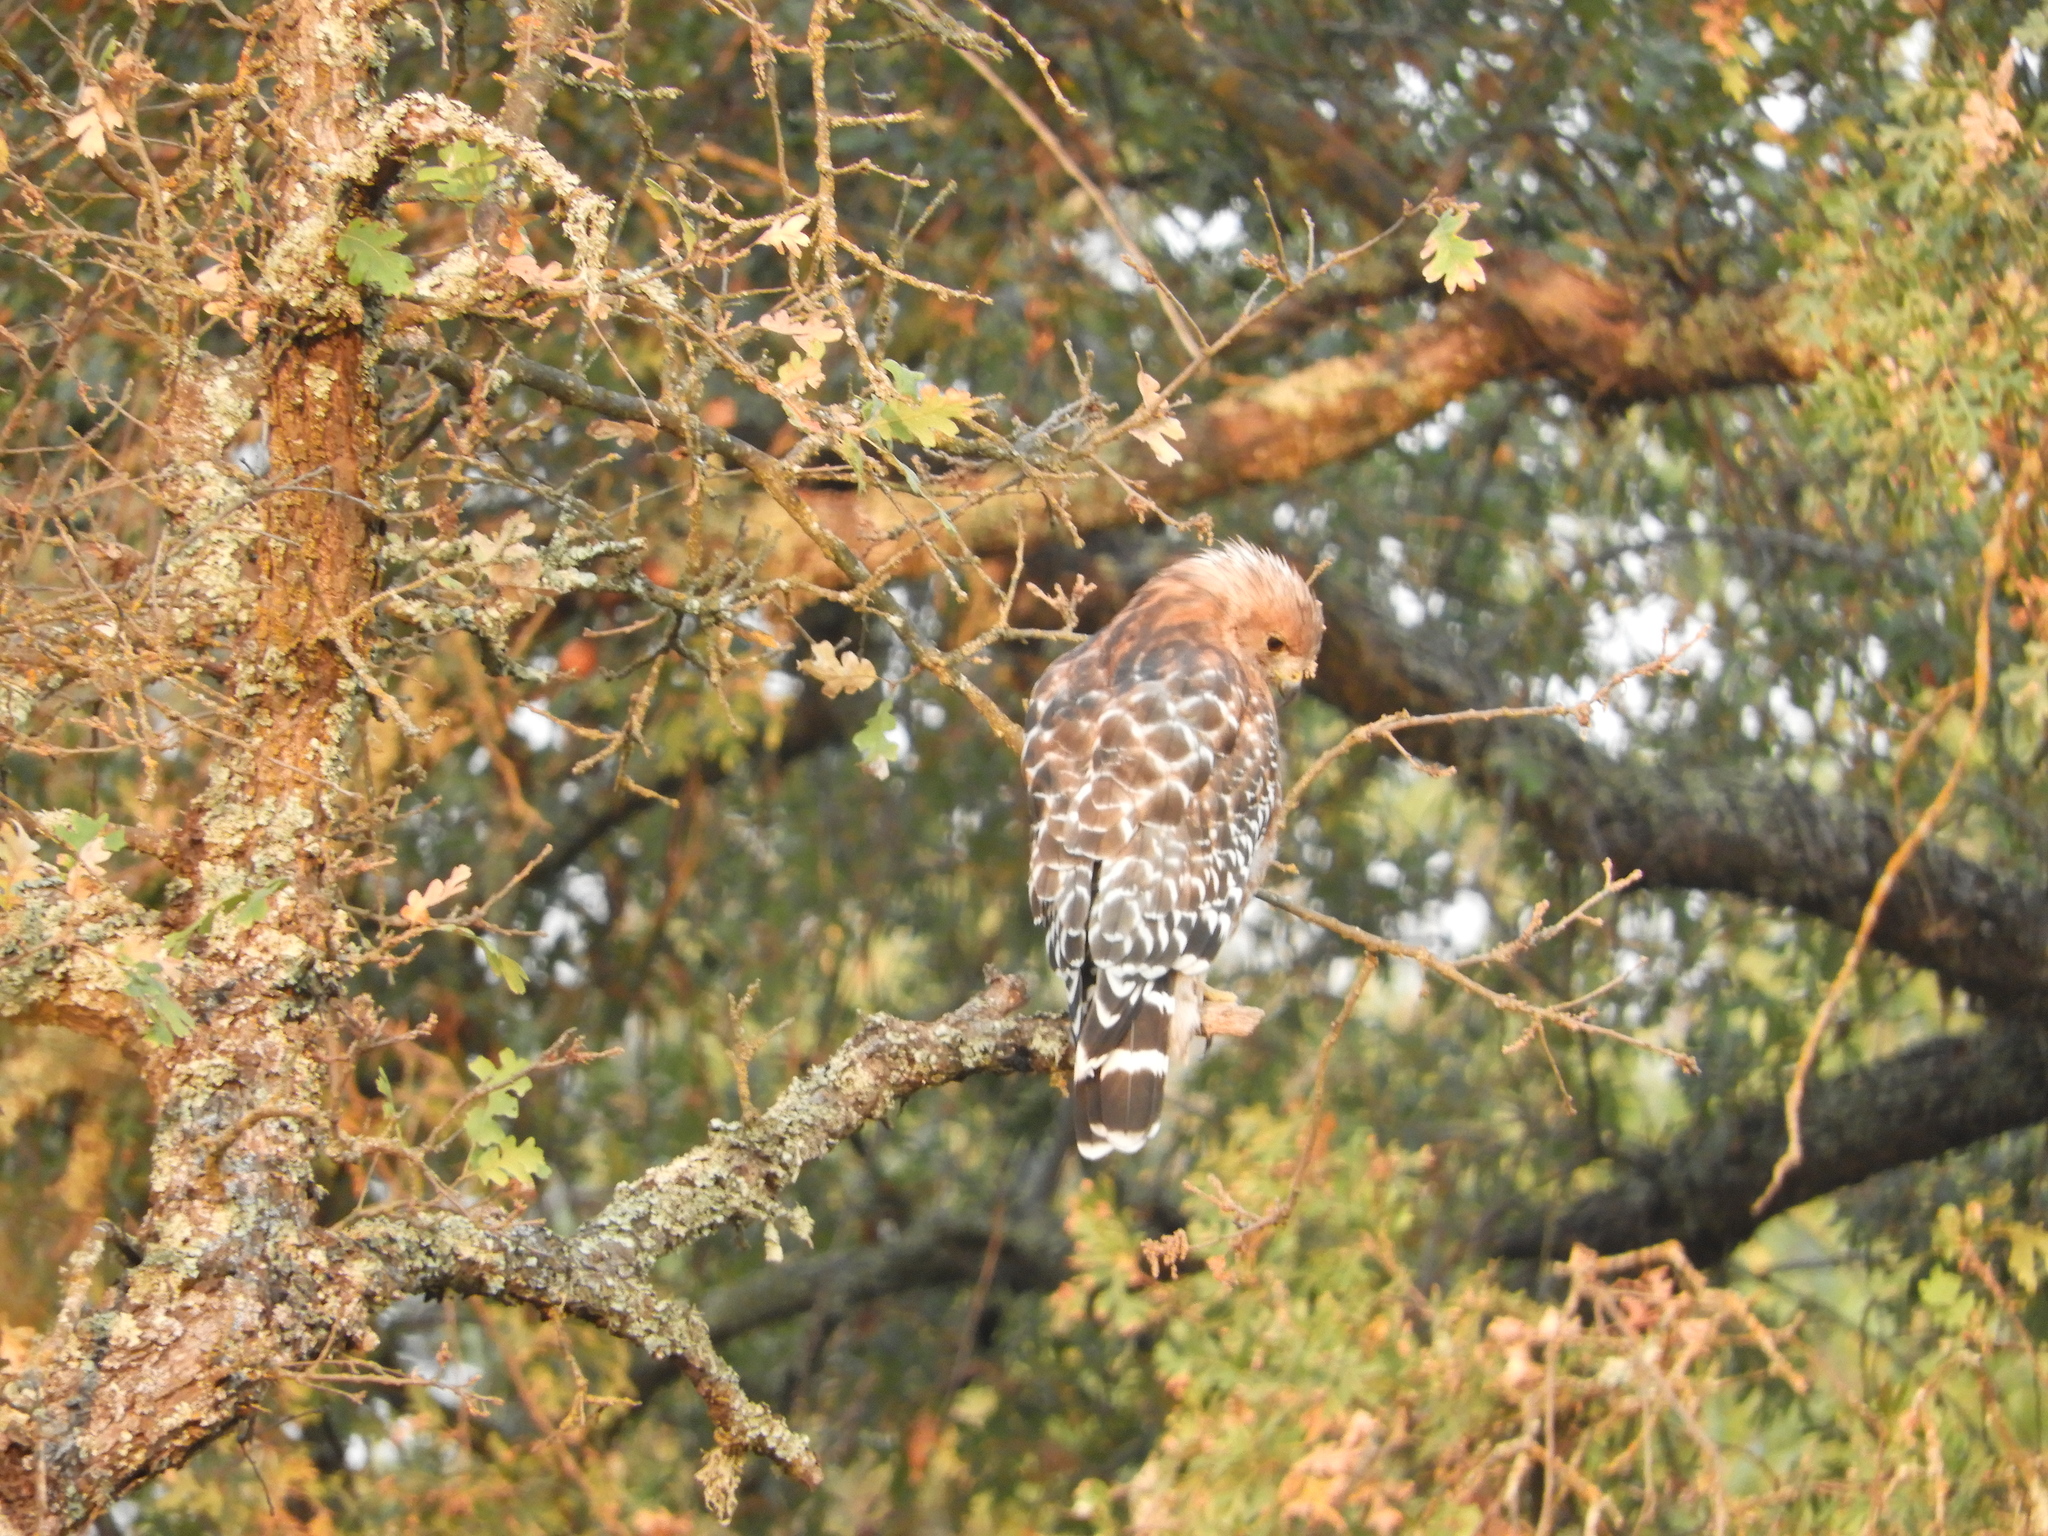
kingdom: Animalia
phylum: Chordata
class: Aves
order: Accipitriformes
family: Accipitridae
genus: Buteo
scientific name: Buteo lineatus
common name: Red-shouldered hawk
